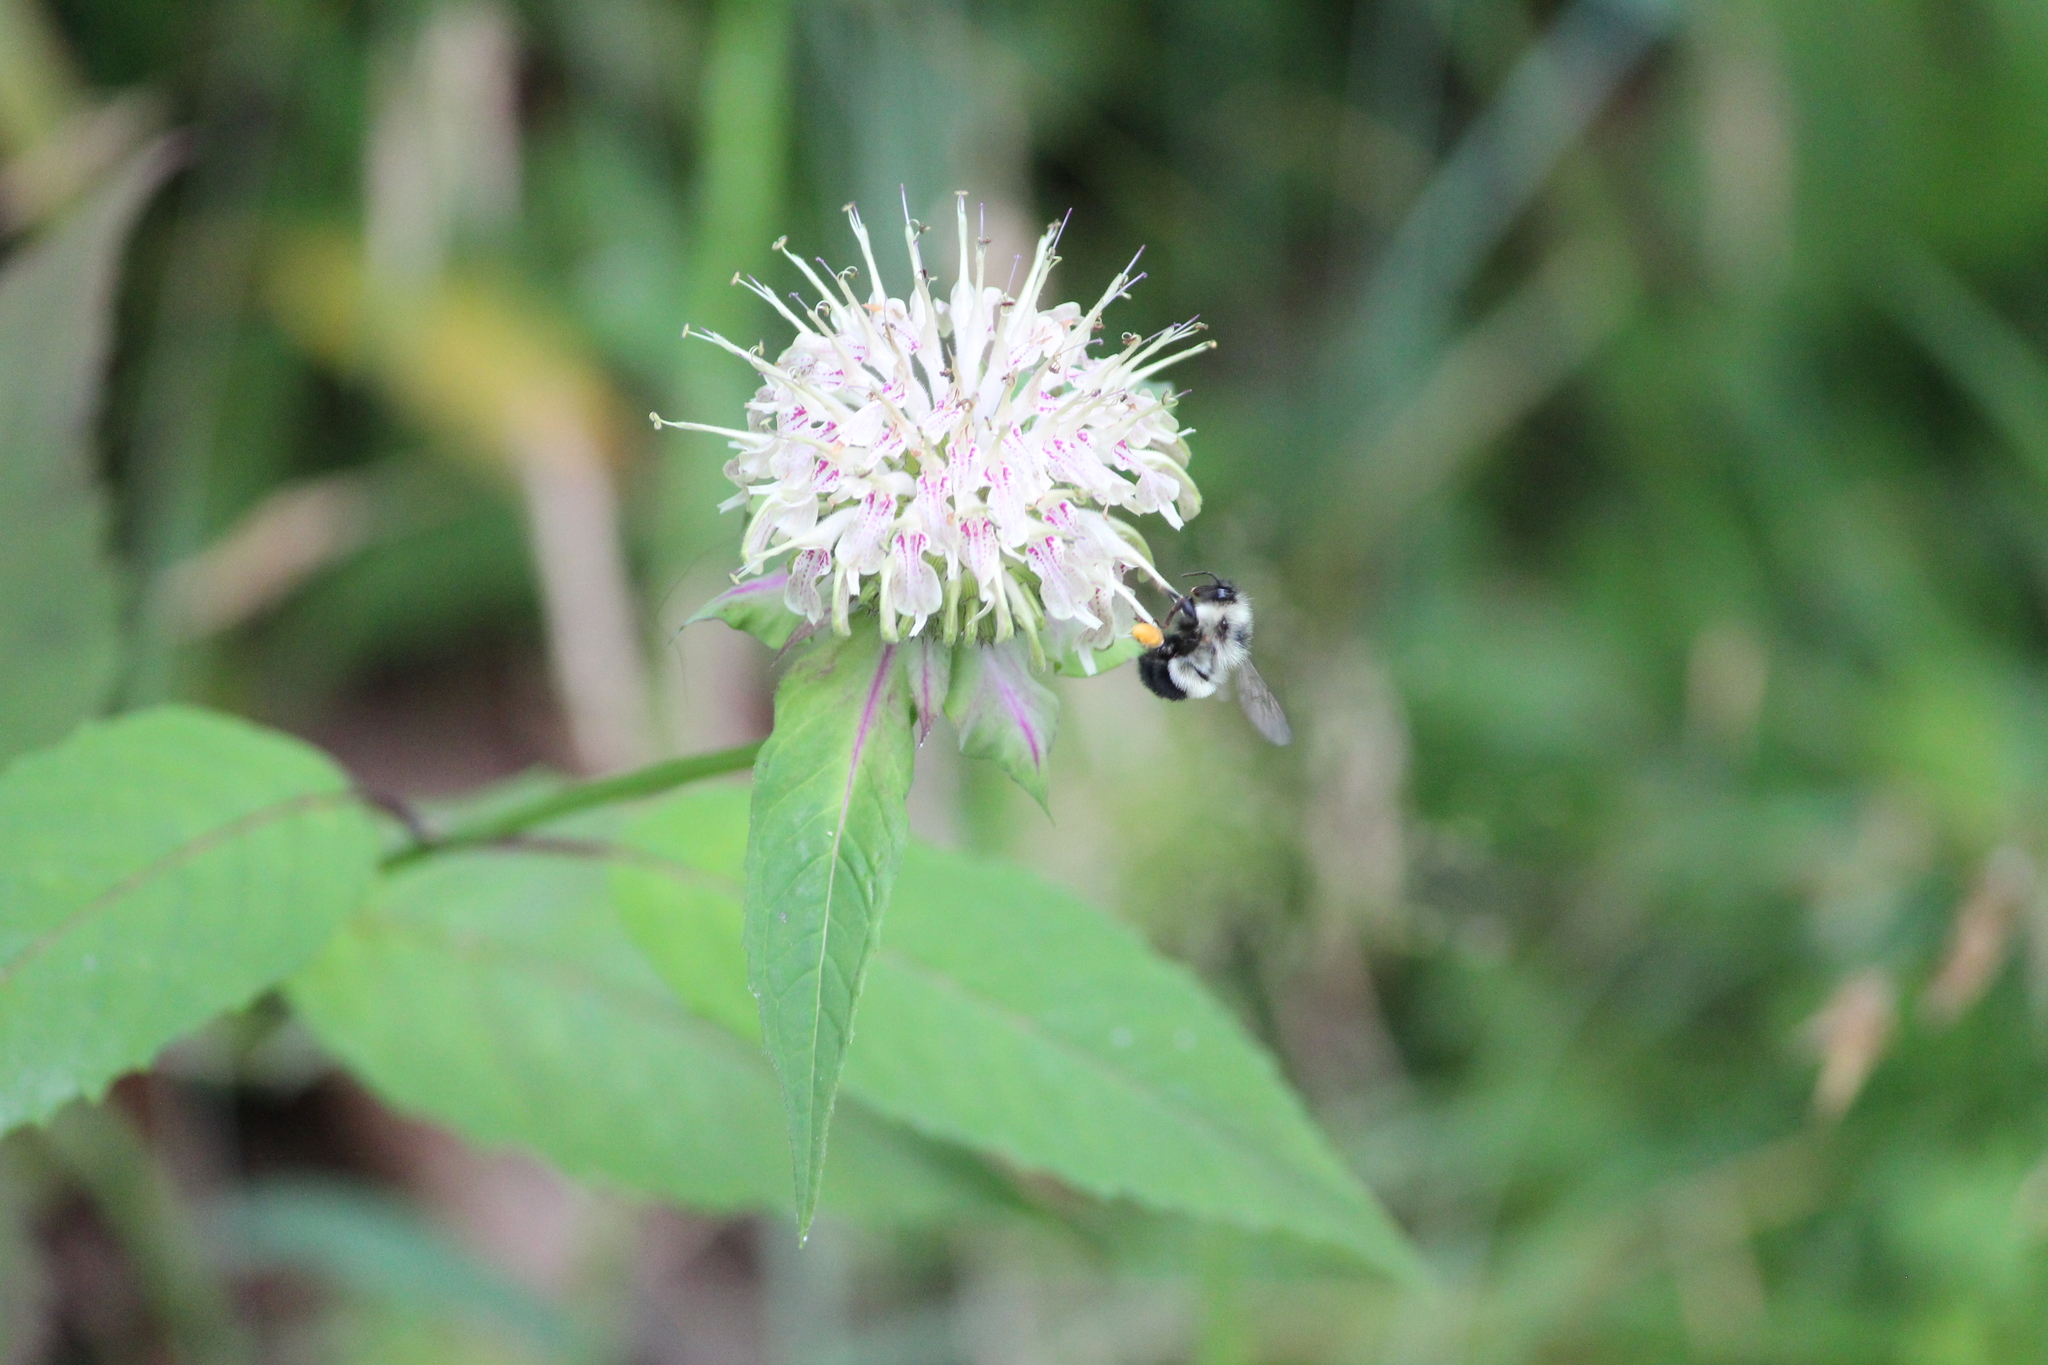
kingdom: Plantae
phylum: Tracheophyta
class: Magnoliopsida
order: Lamiales
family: Lamiaceae
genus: Monarda
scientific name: Monarda clinopodia
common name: Basil beebalm
